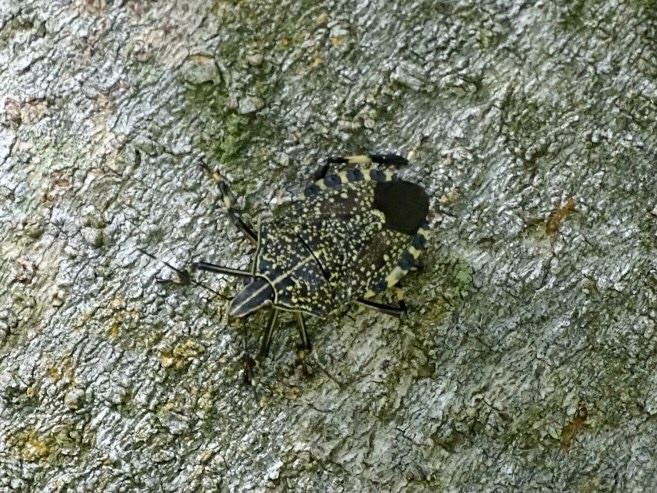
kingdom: Animalia
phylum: Arthropoda
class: Insecta
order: Hemiptera
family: Pentatomidae
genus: Erthesina
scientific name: Erthesina fullo
